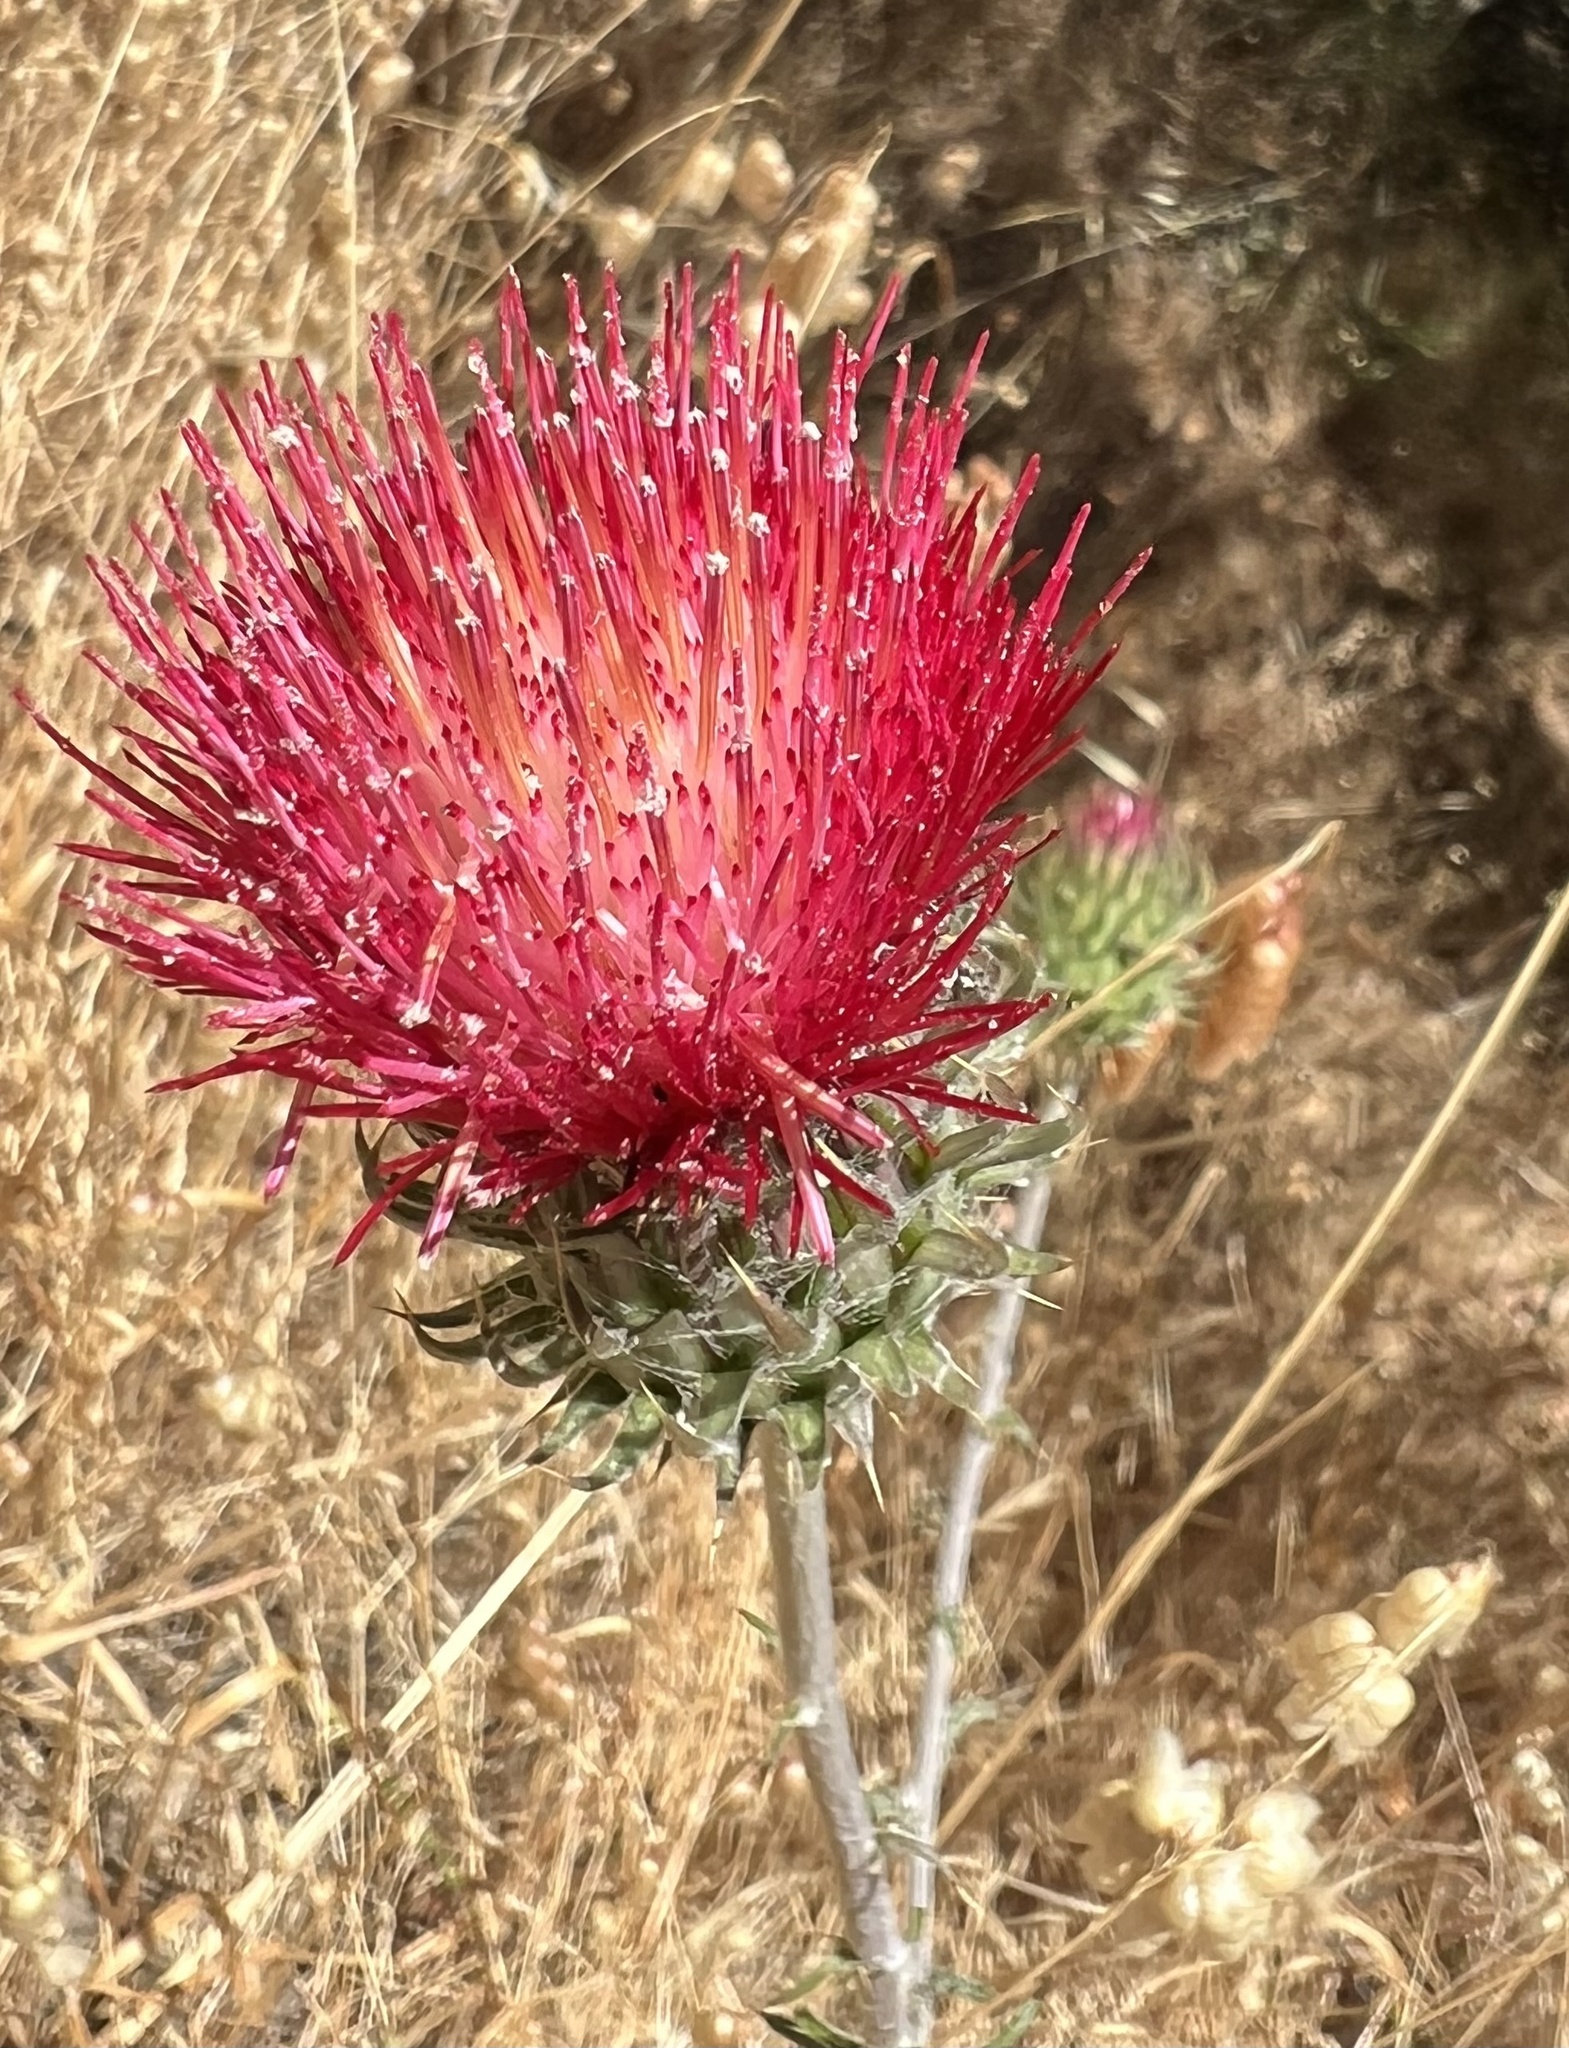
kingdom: Plantae
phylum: Tracheophyta
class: Magnoliopsida
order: Asterales
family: Asteraceae
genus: Cirsium
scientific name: Cirsium occidentale
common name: Western thistle
